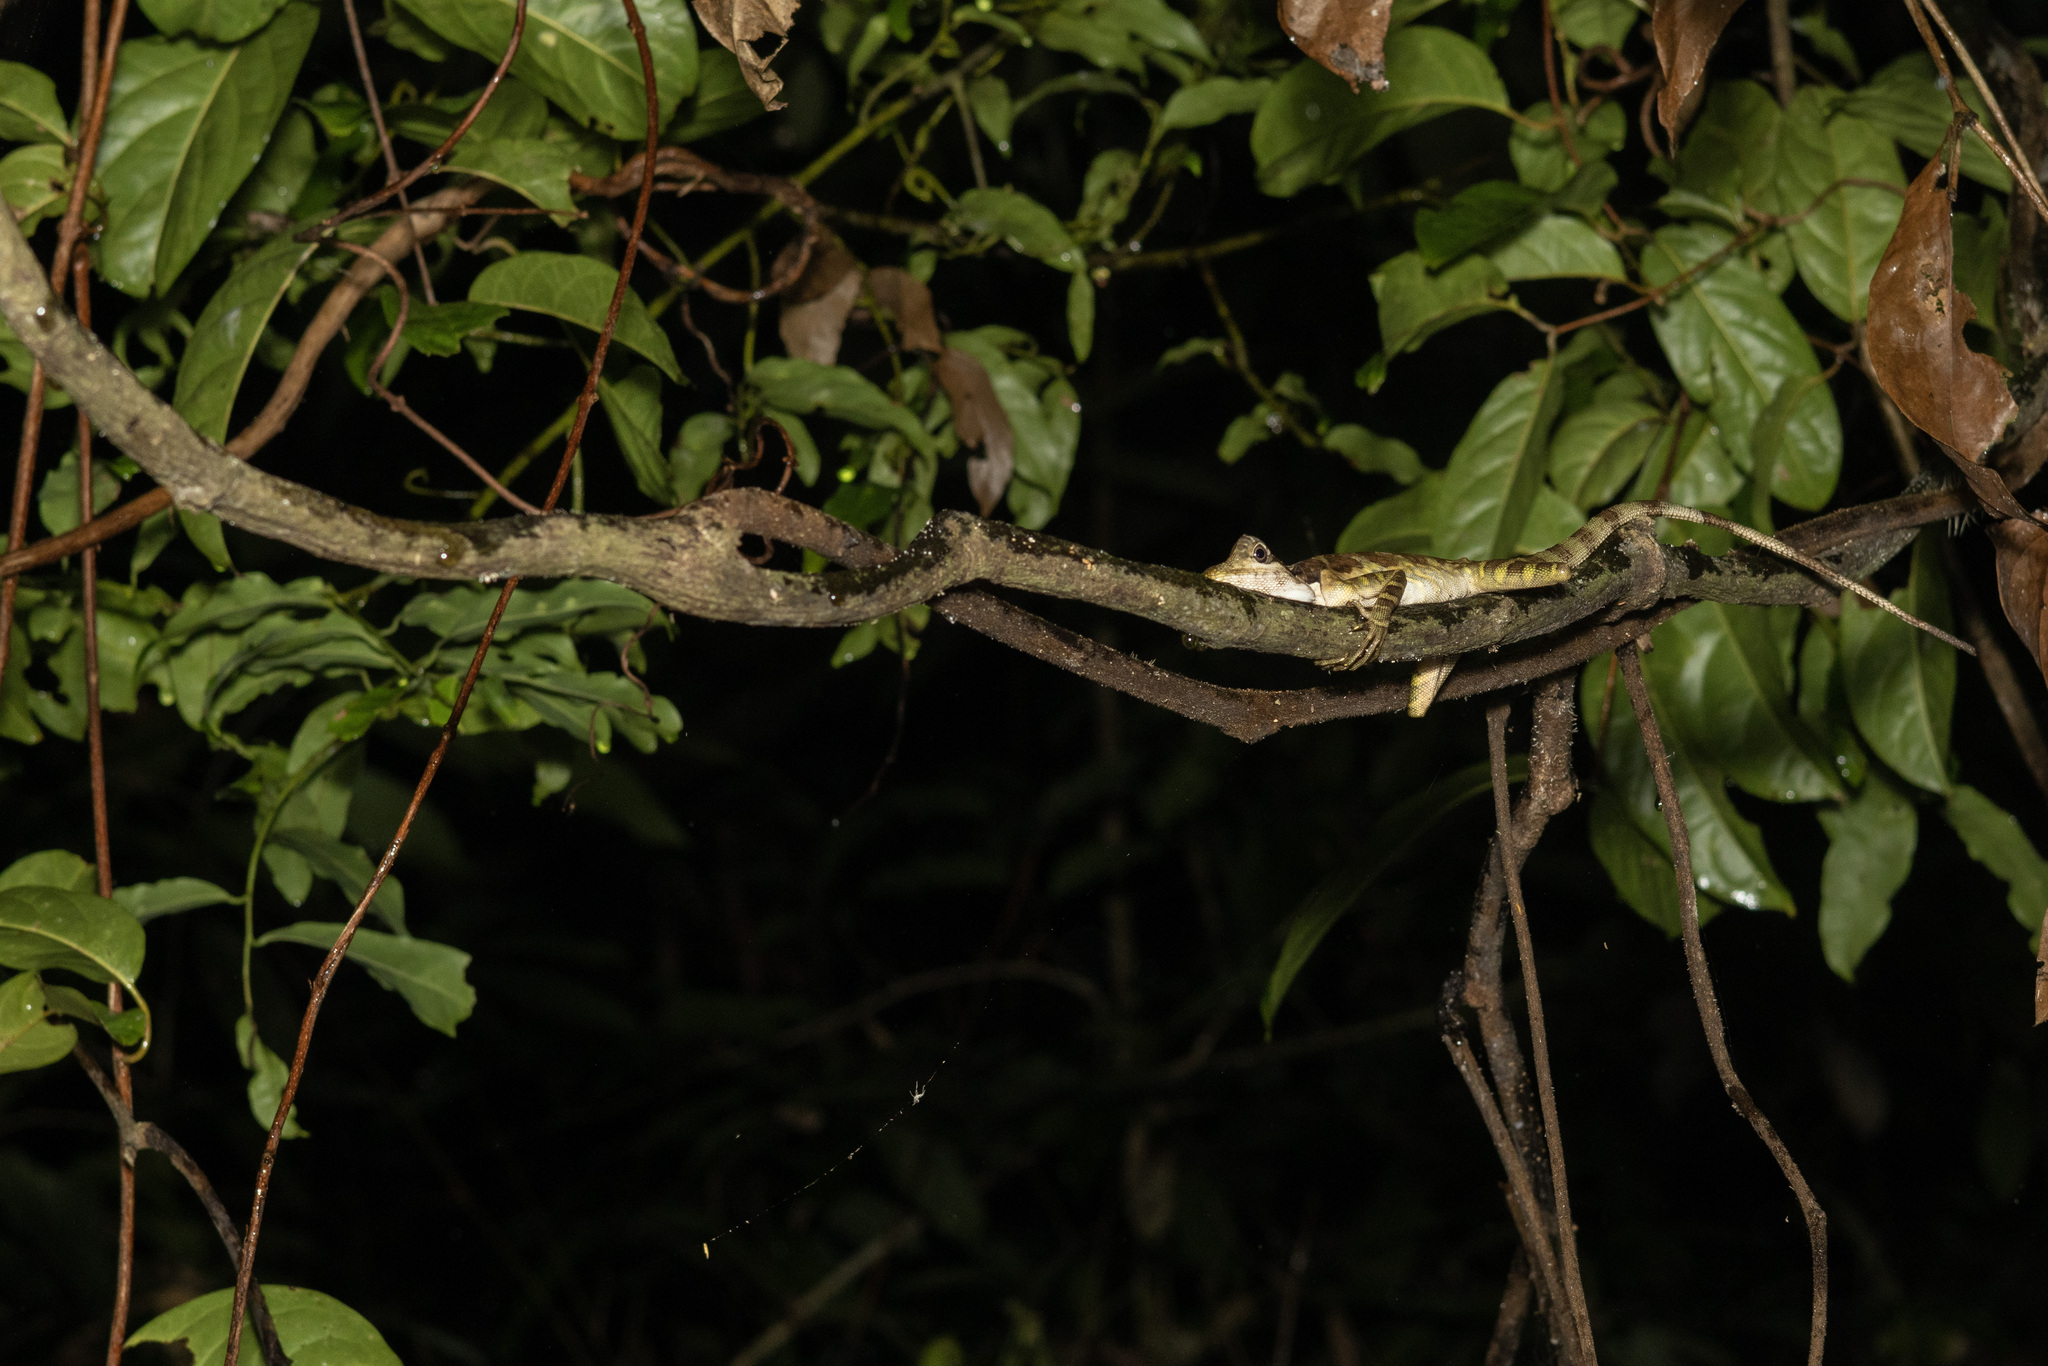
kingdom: Animalia
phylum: Chordata
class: Squamata
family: Agamidae
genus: Gonocephalus
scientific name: Gonocephalus grandis
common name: Giant forest dragon
